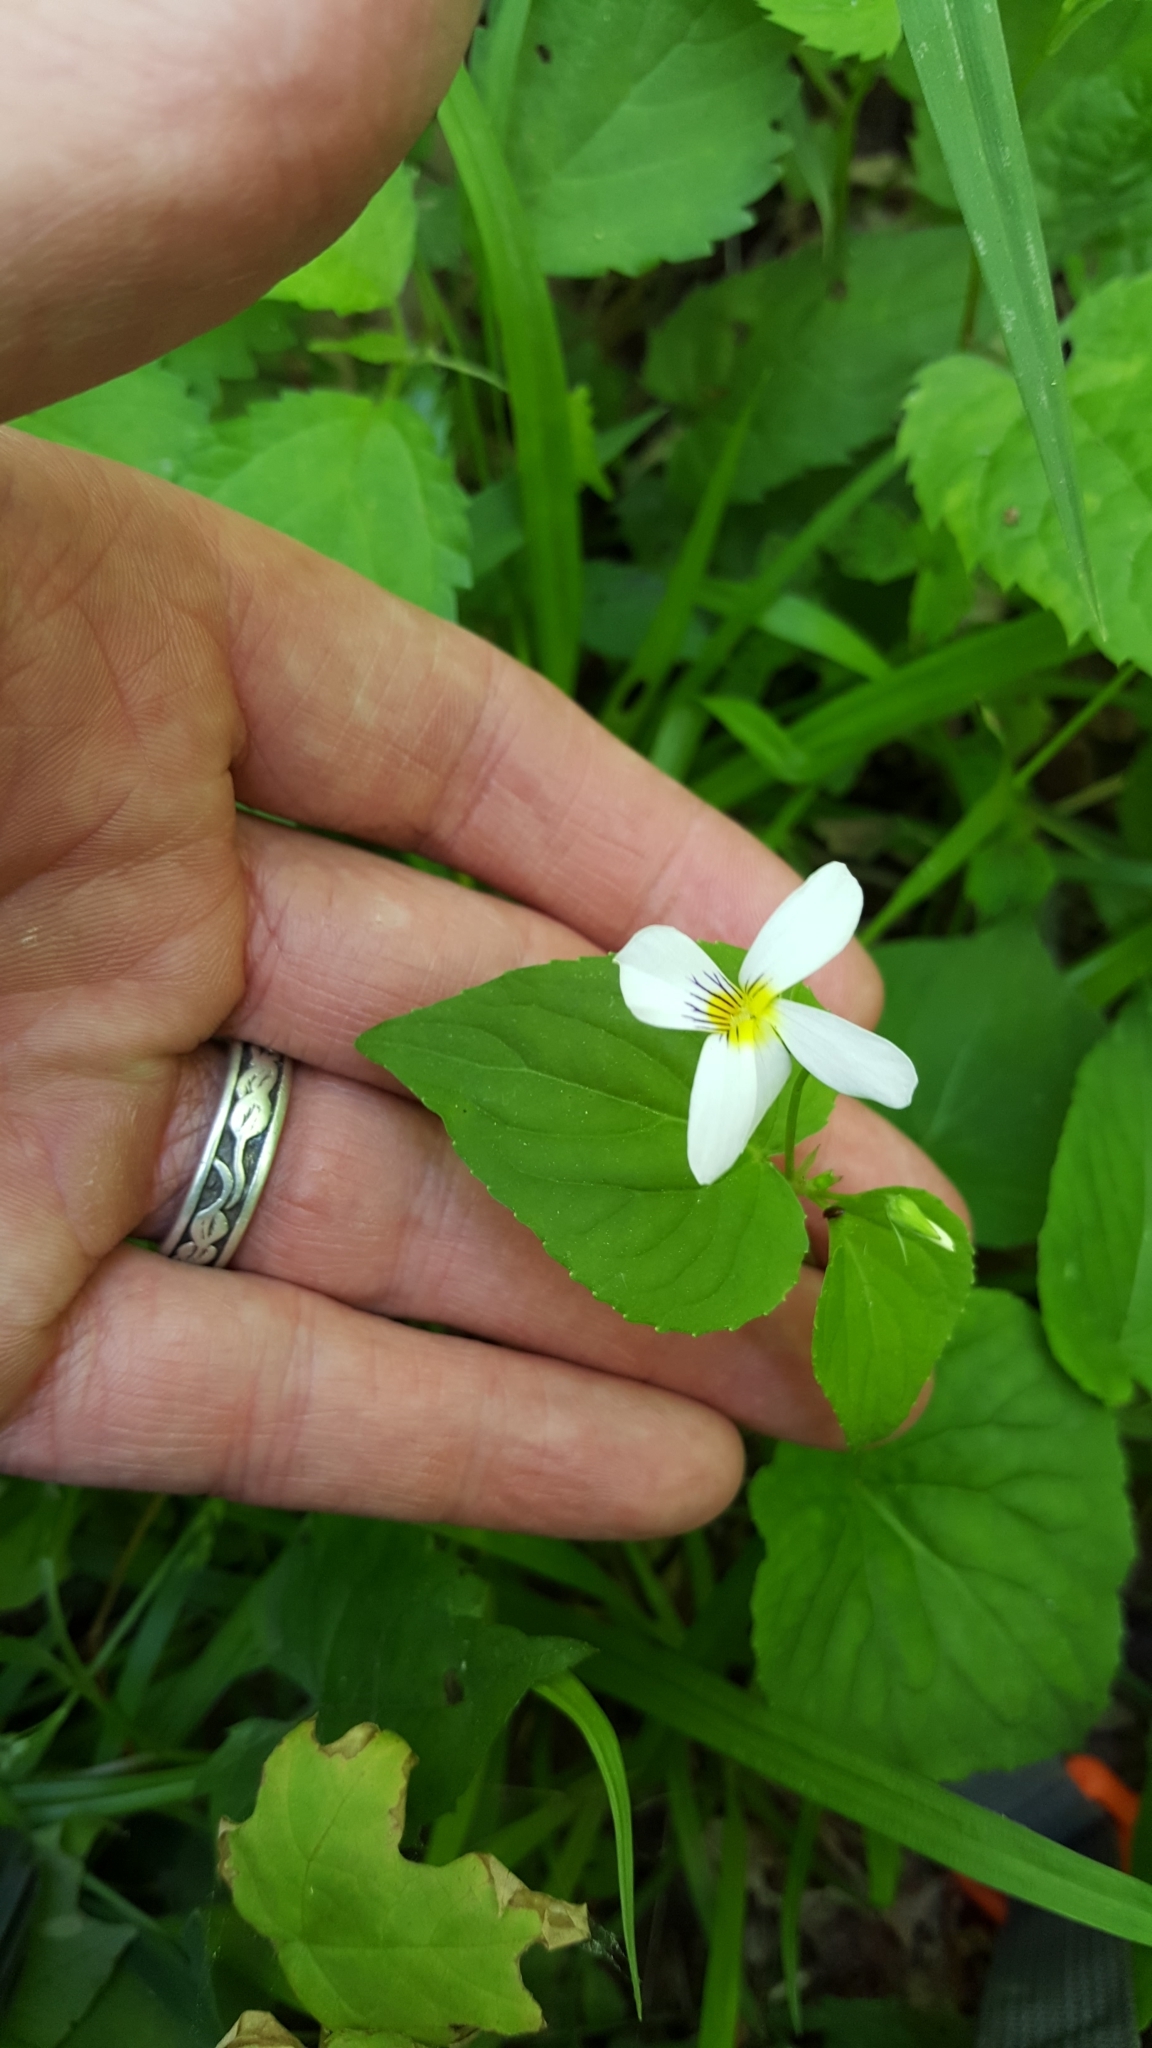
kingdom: Plantae
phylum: Tracheophyta
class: Magnoliopsida
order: Malpighiales
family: Violaceae
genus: Viola
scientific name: Viola canadensis
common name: Canada violet
